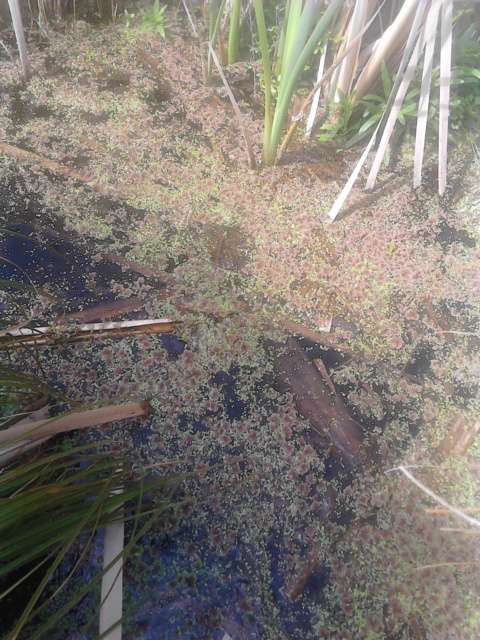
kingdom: Plantae
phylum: Tracheophyta
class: Polypodiopsida
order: Salviniales
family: Salviniaceae
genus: Azolla
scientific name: Azolla rubra
